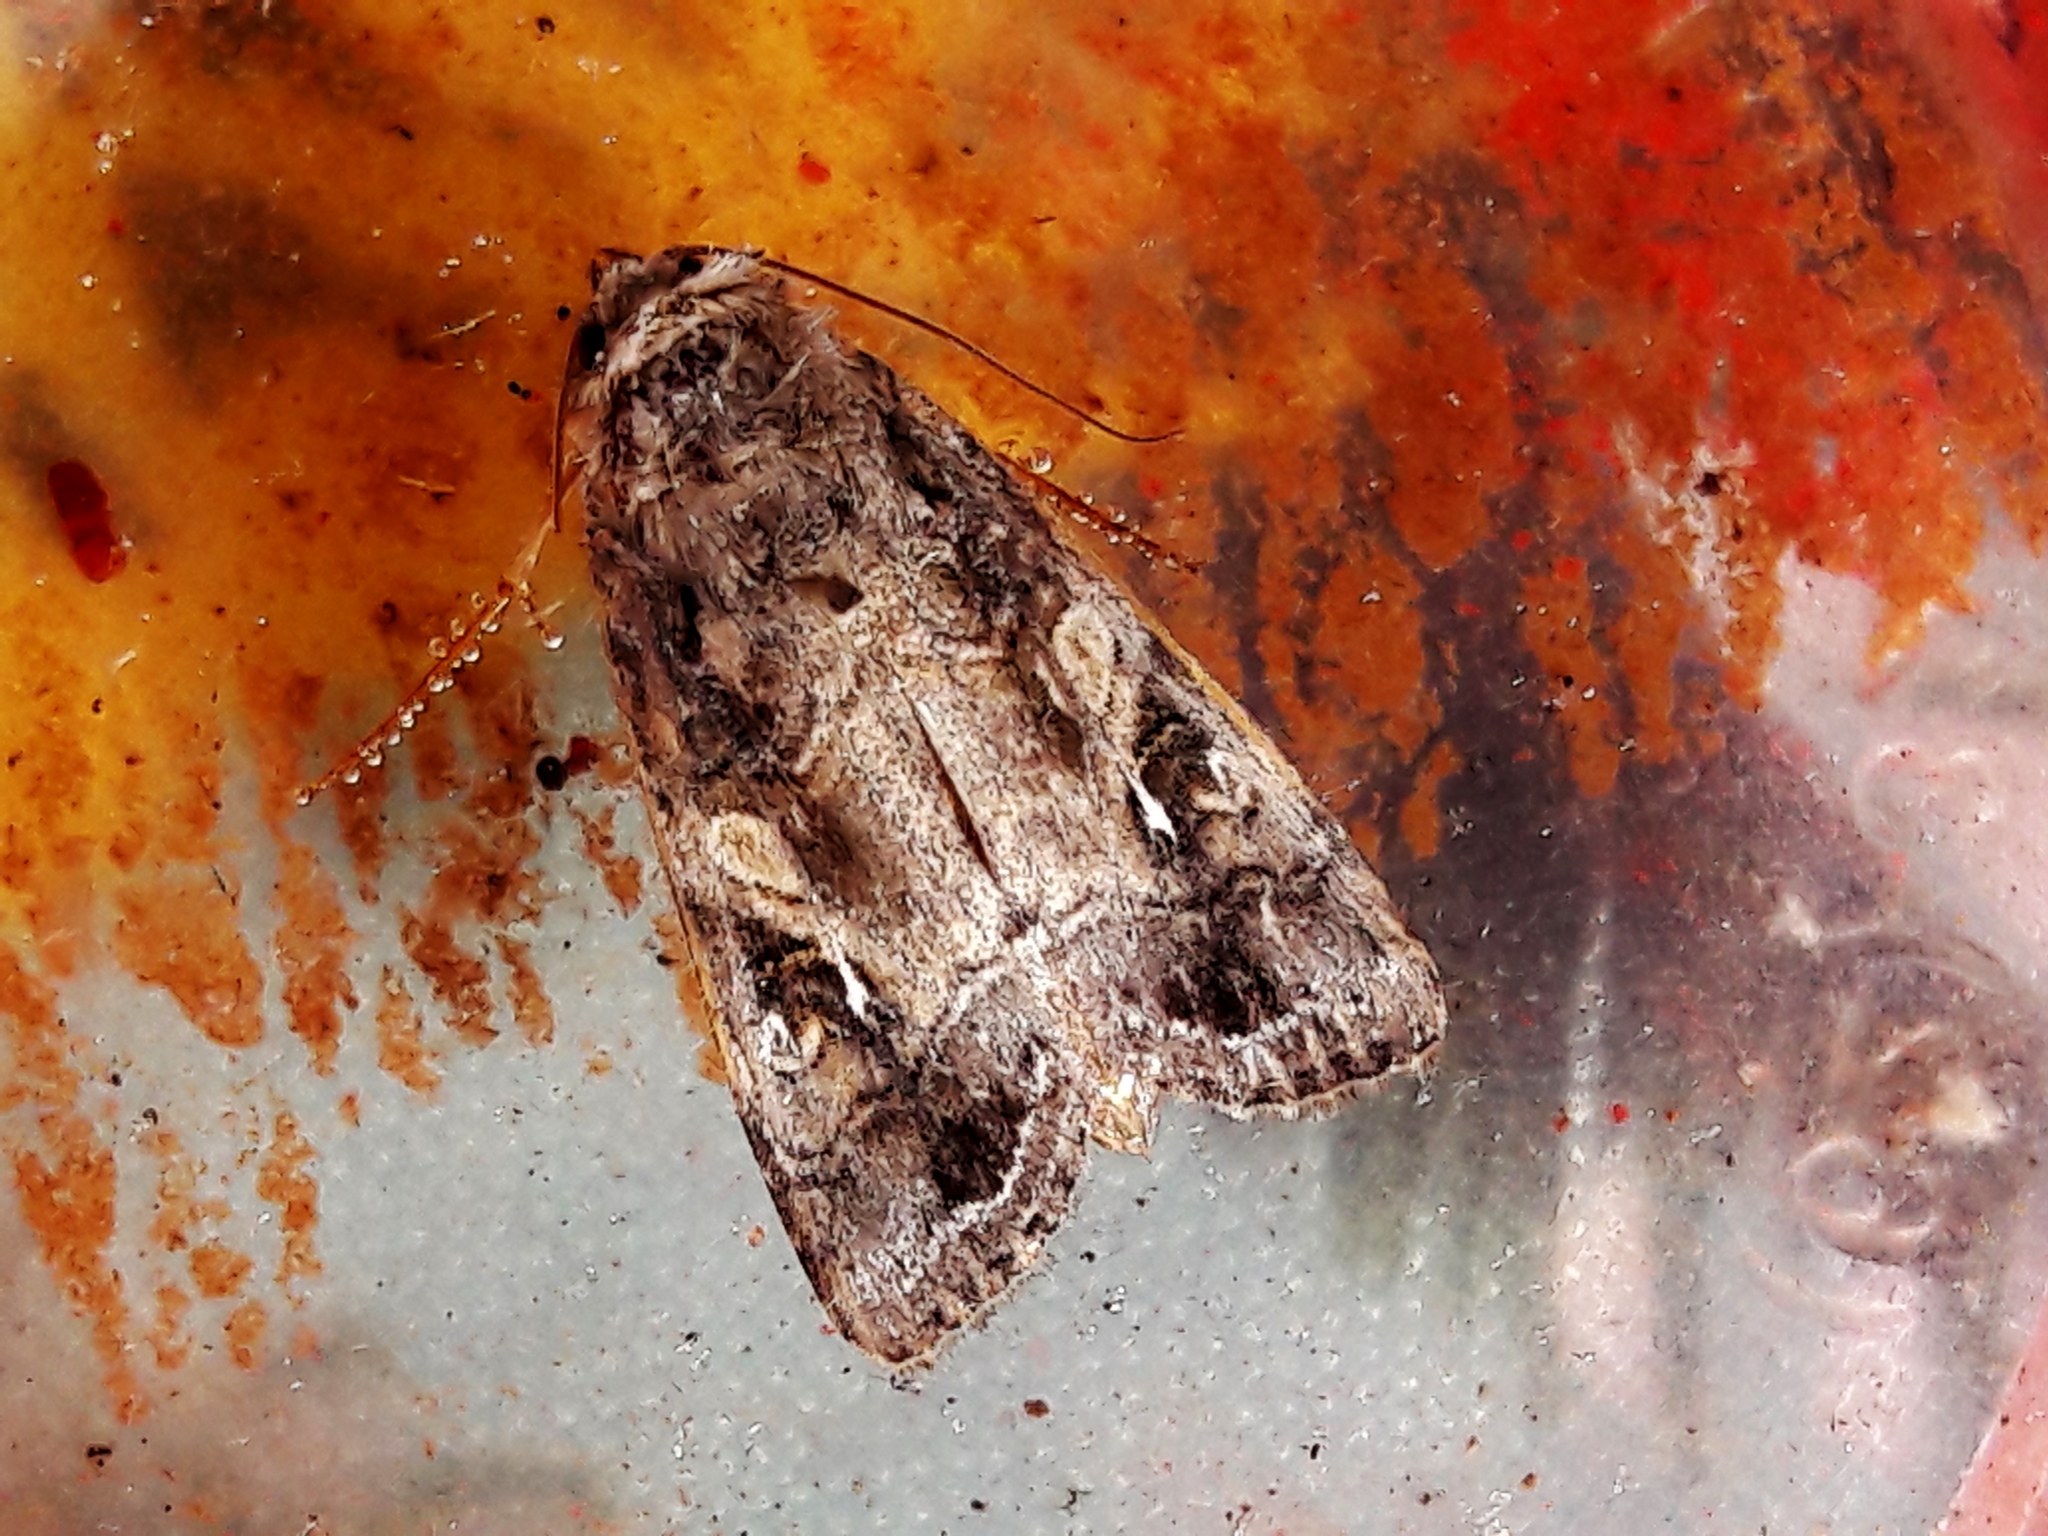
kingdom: Animalia
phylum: Arthropoda
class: Insecta
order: Lepidoptera
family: Noctuidae
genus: Spodoptera
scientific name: Spodoptera frugiperda
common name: Fall armyworm
